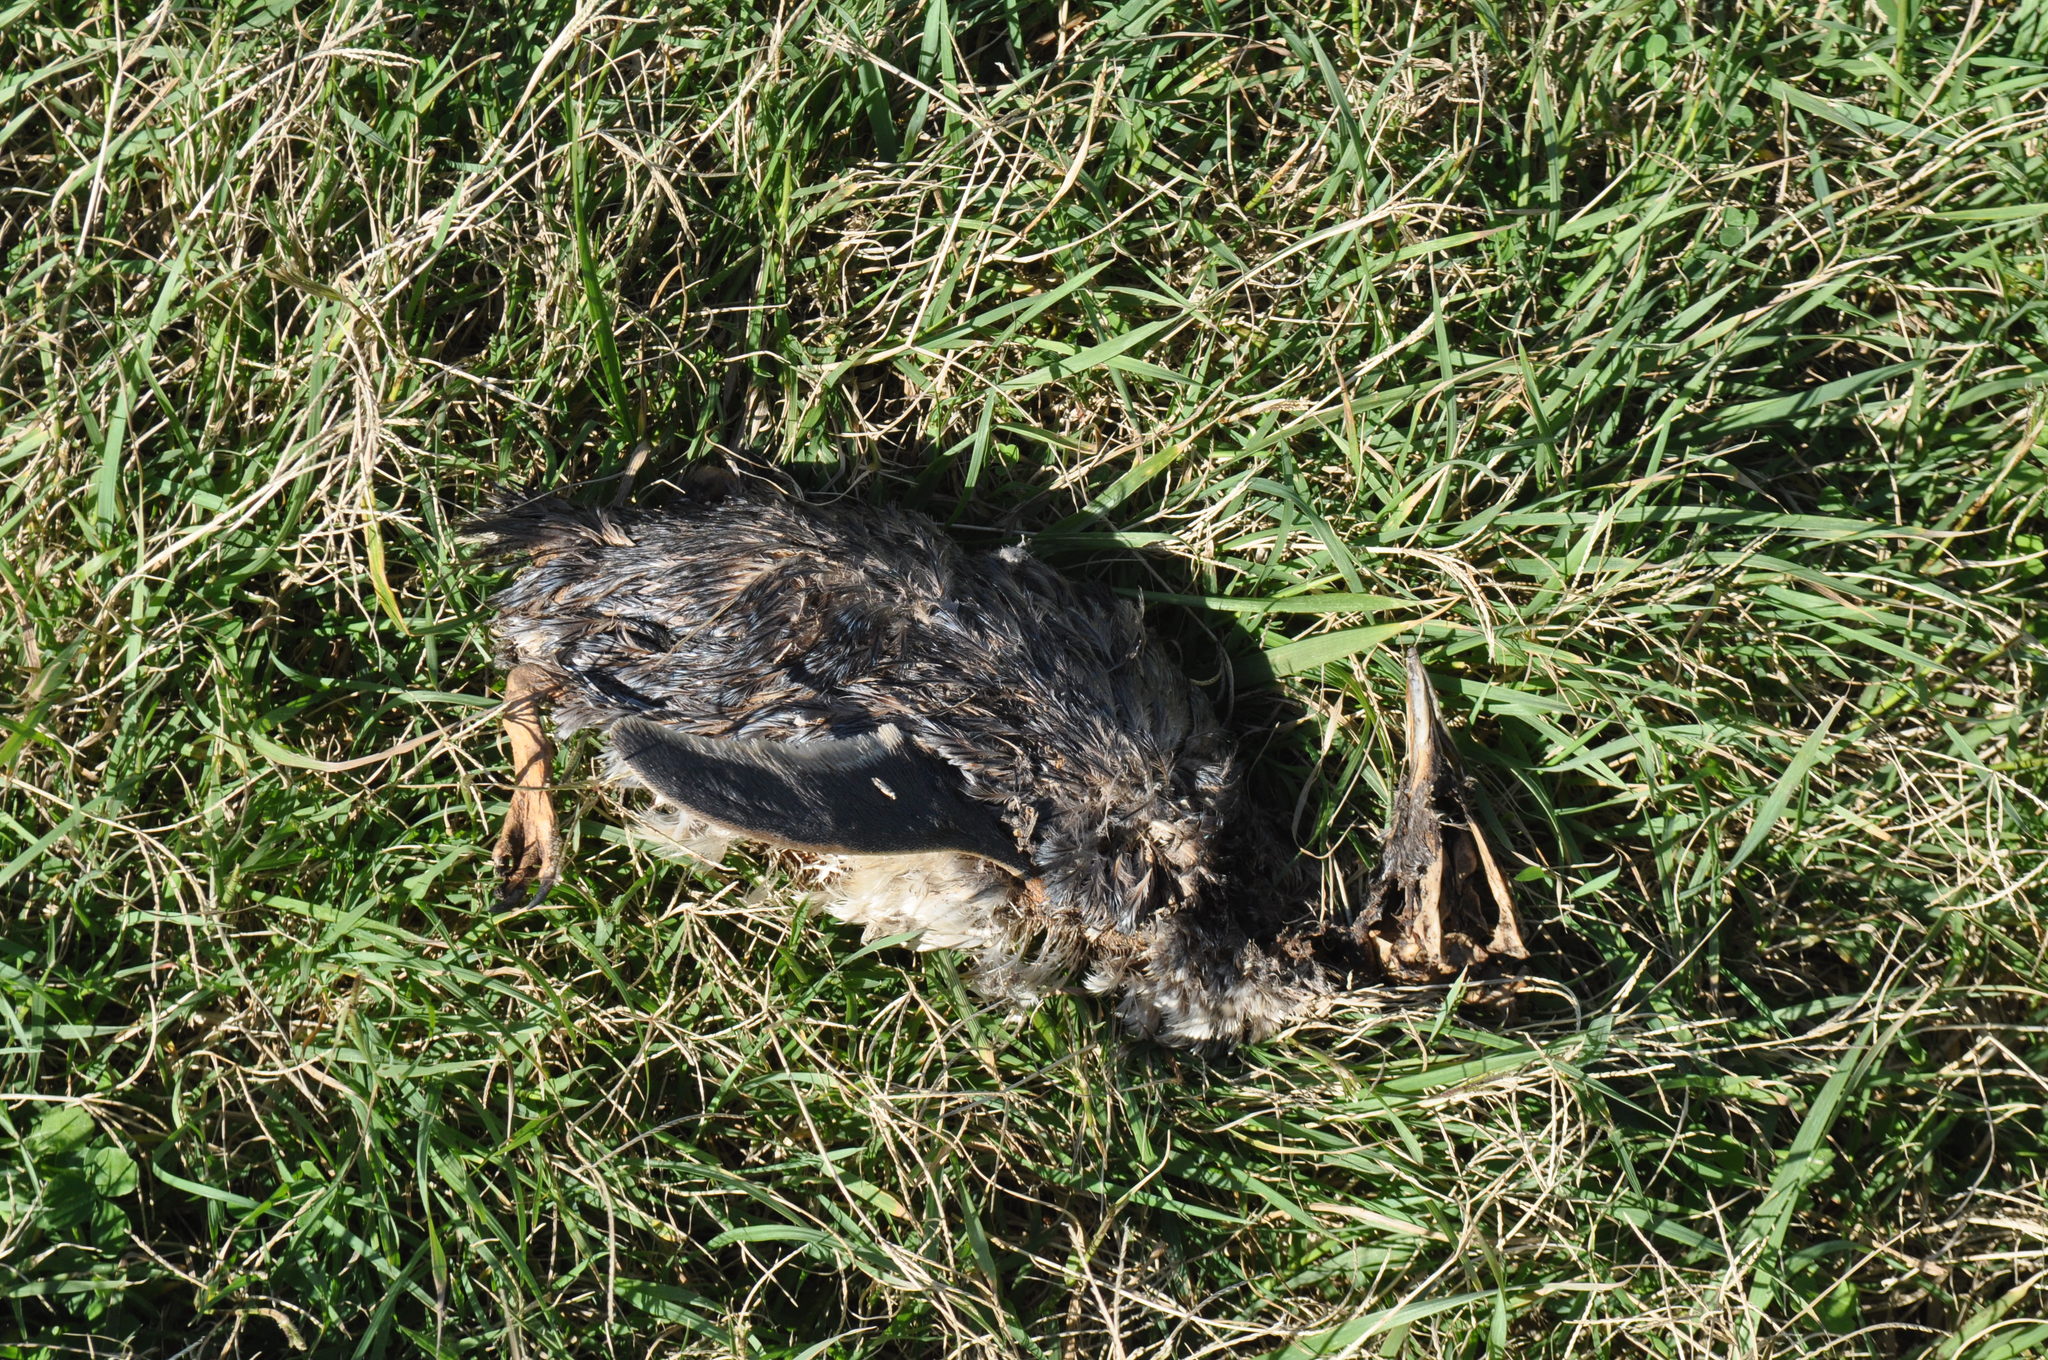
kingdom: Animalia
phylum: Chordata
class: Aves
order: Sphenisciformes
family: Spheniscidae
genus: Eudyptula
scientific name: Eudyptula minor
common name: Little penguin
